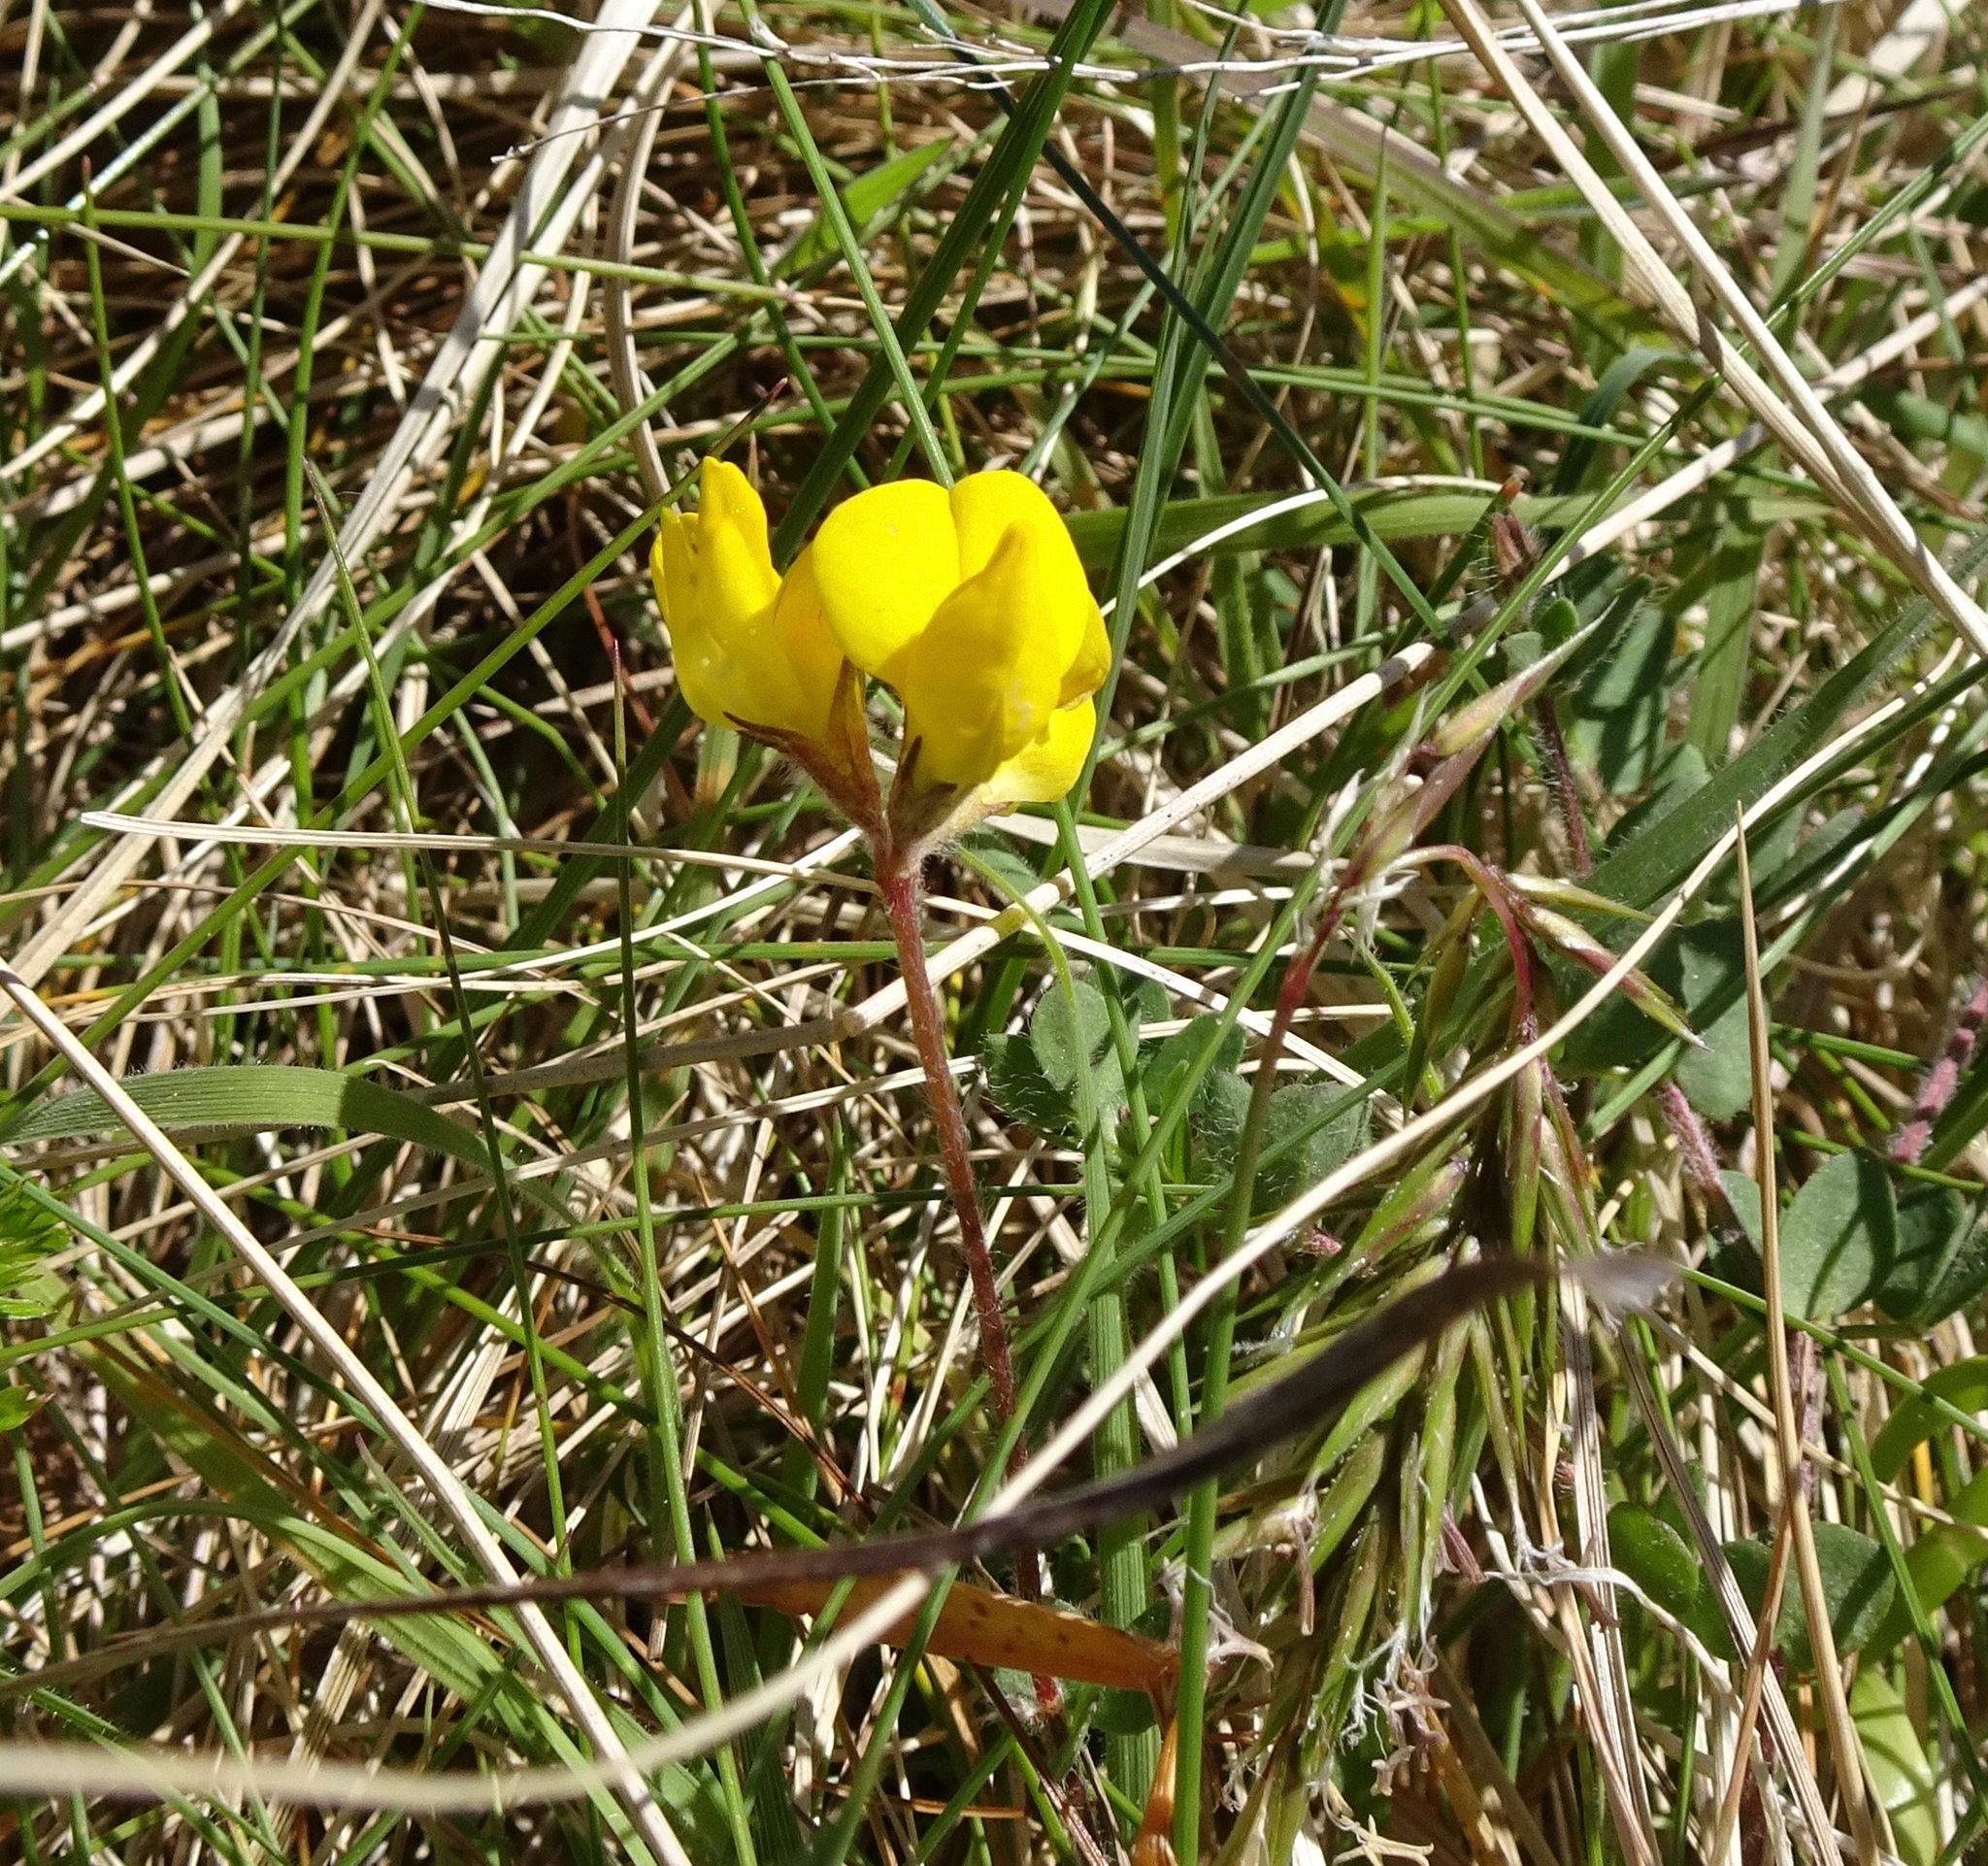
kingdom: Plantae
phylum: Tracheophyta
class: Magnoliopsida
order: Fabales
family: Fabaceae
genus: Lotus
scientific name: Lotus corniculatus
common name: Common bird's-foot-trefoil
